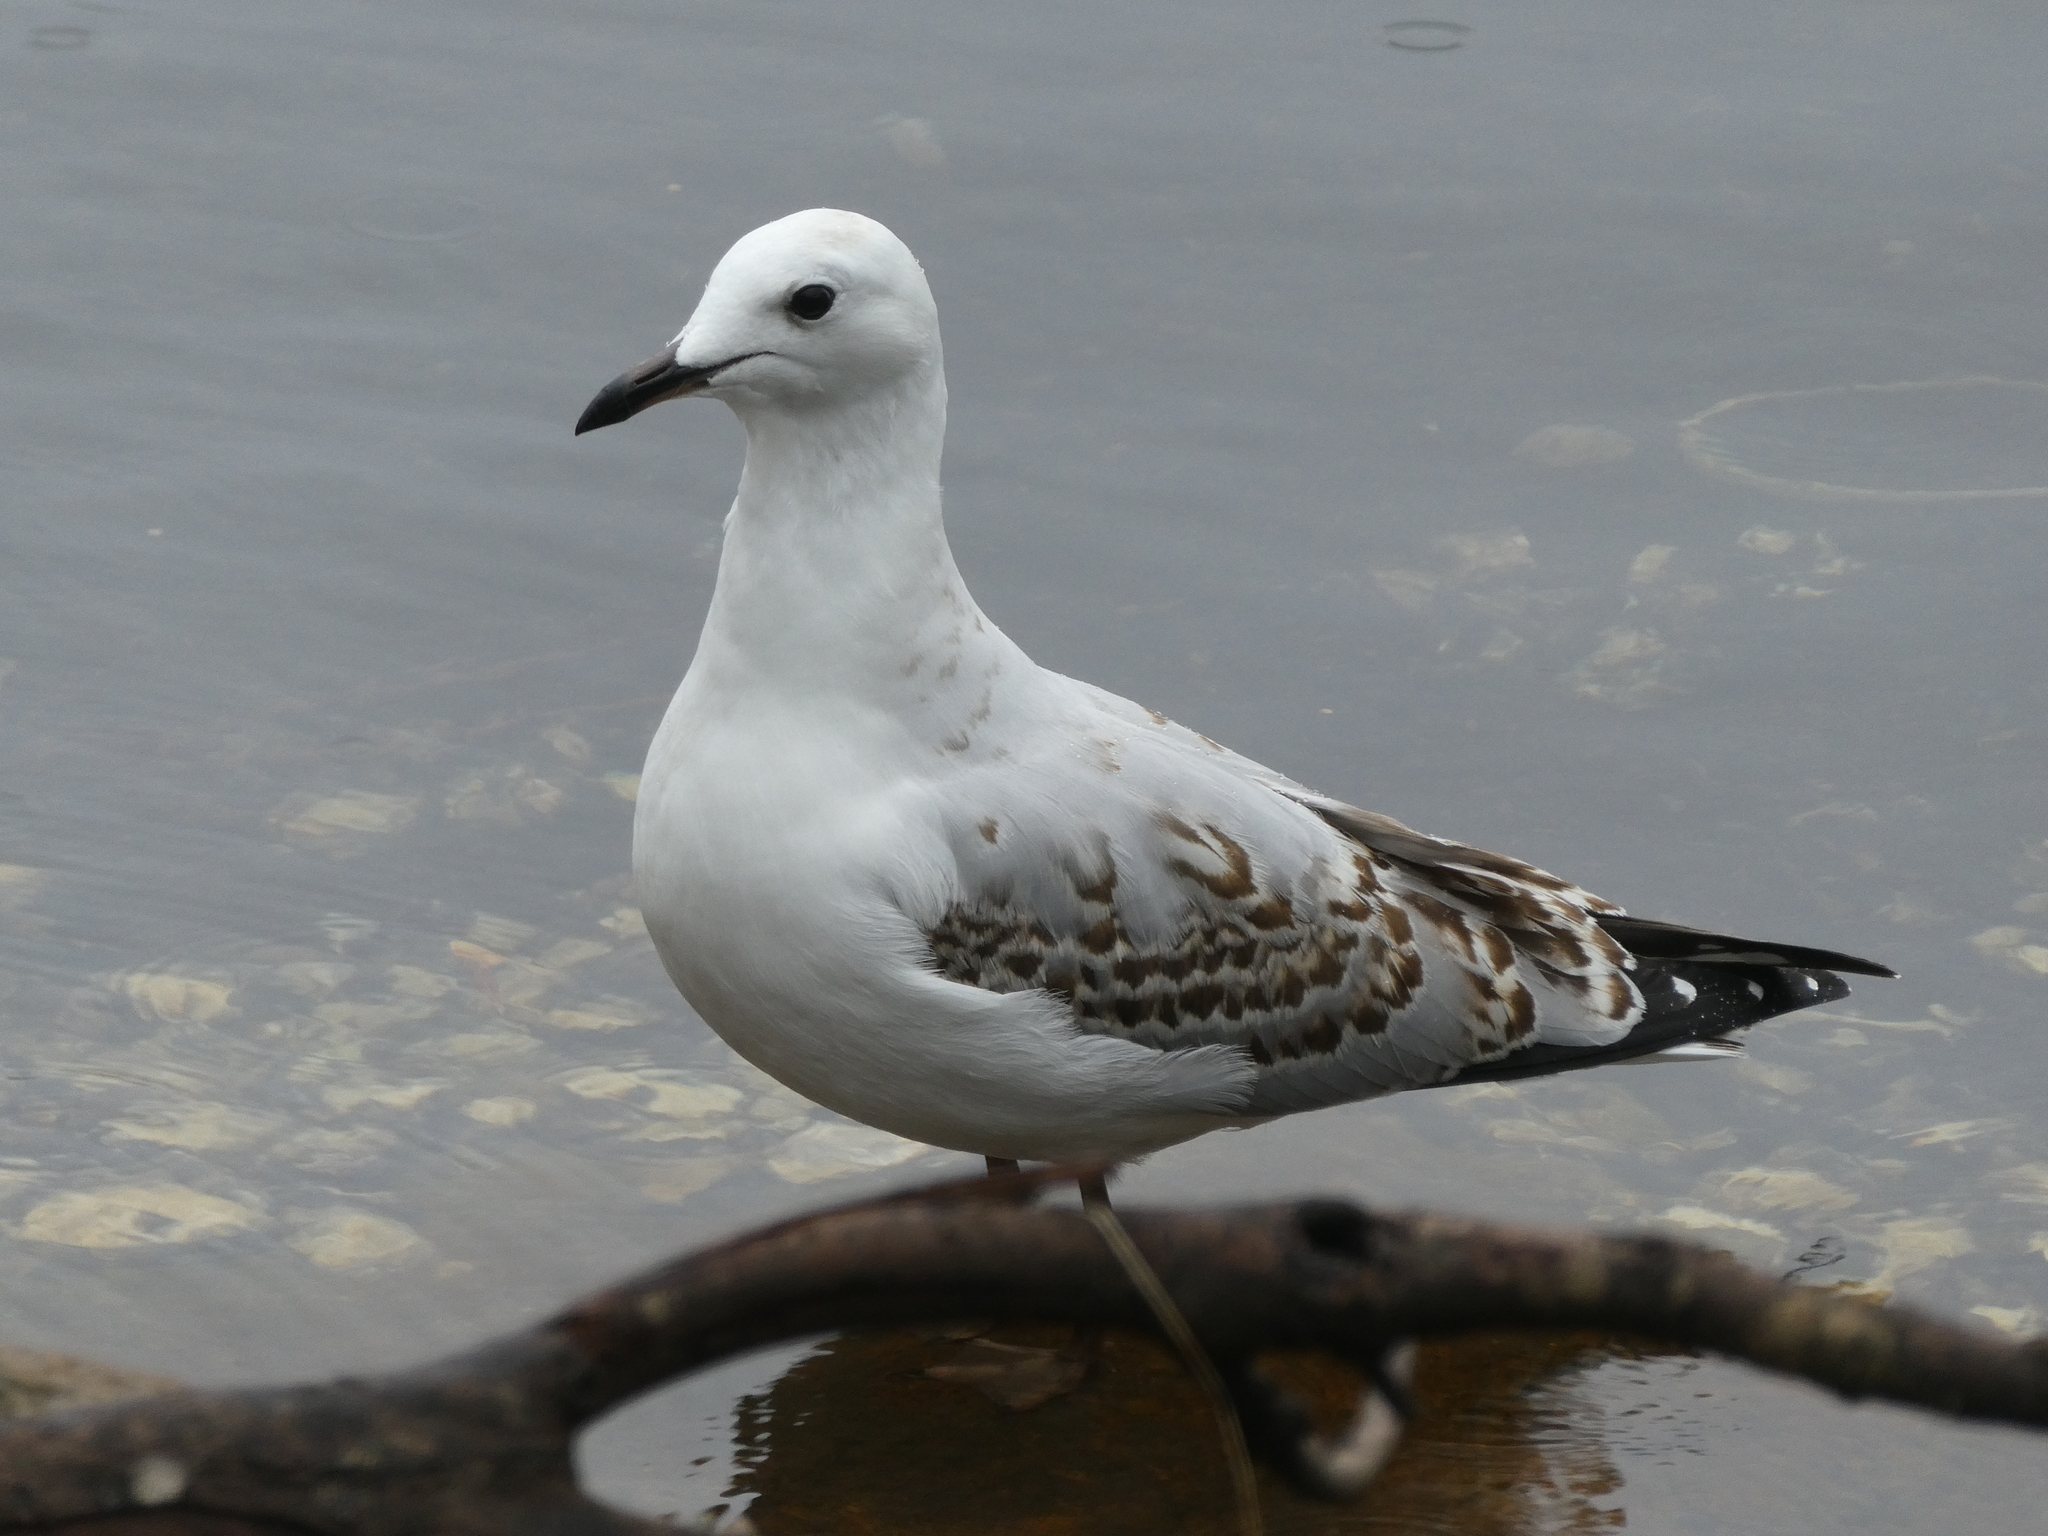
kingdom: Animalia
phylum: Chordata
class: Aves
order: Charadriiformes
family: Laridae
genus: Chroicocephalus
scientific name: Chroicocephalus novaehollandiae
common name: Silver gull
